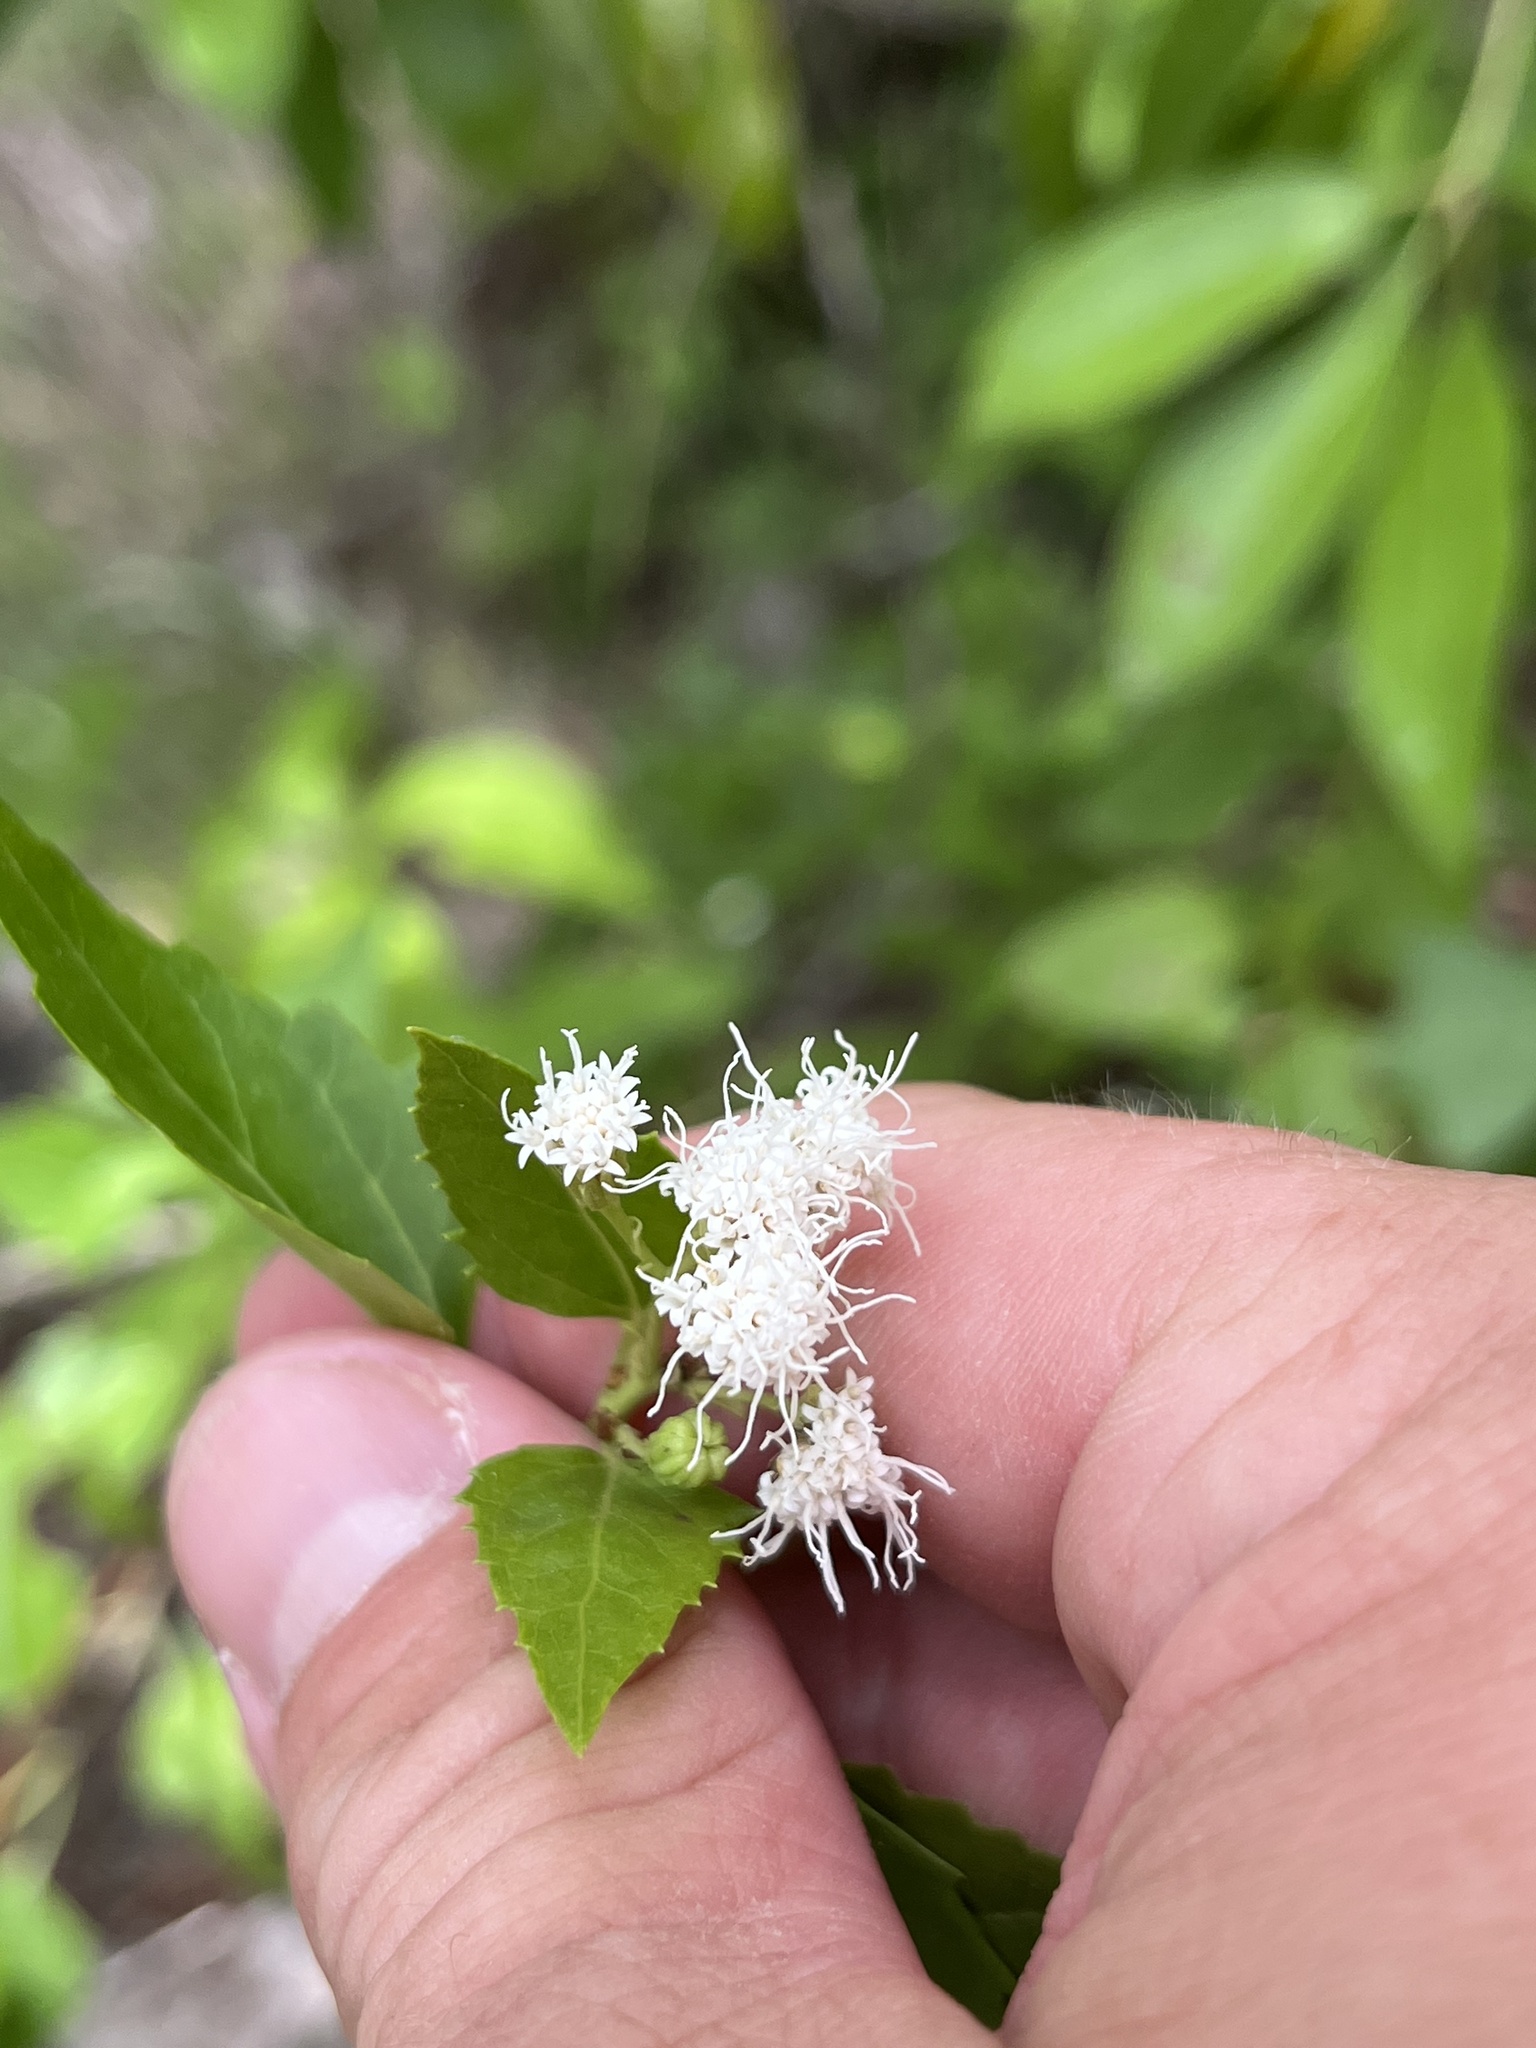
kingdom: Plantae
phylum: Tracheophyta
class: Magnoliopsida
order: Asterales
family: Asteraceae
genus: Ageratina
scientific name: Ageratina havanensis
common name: Havana snakeroot
